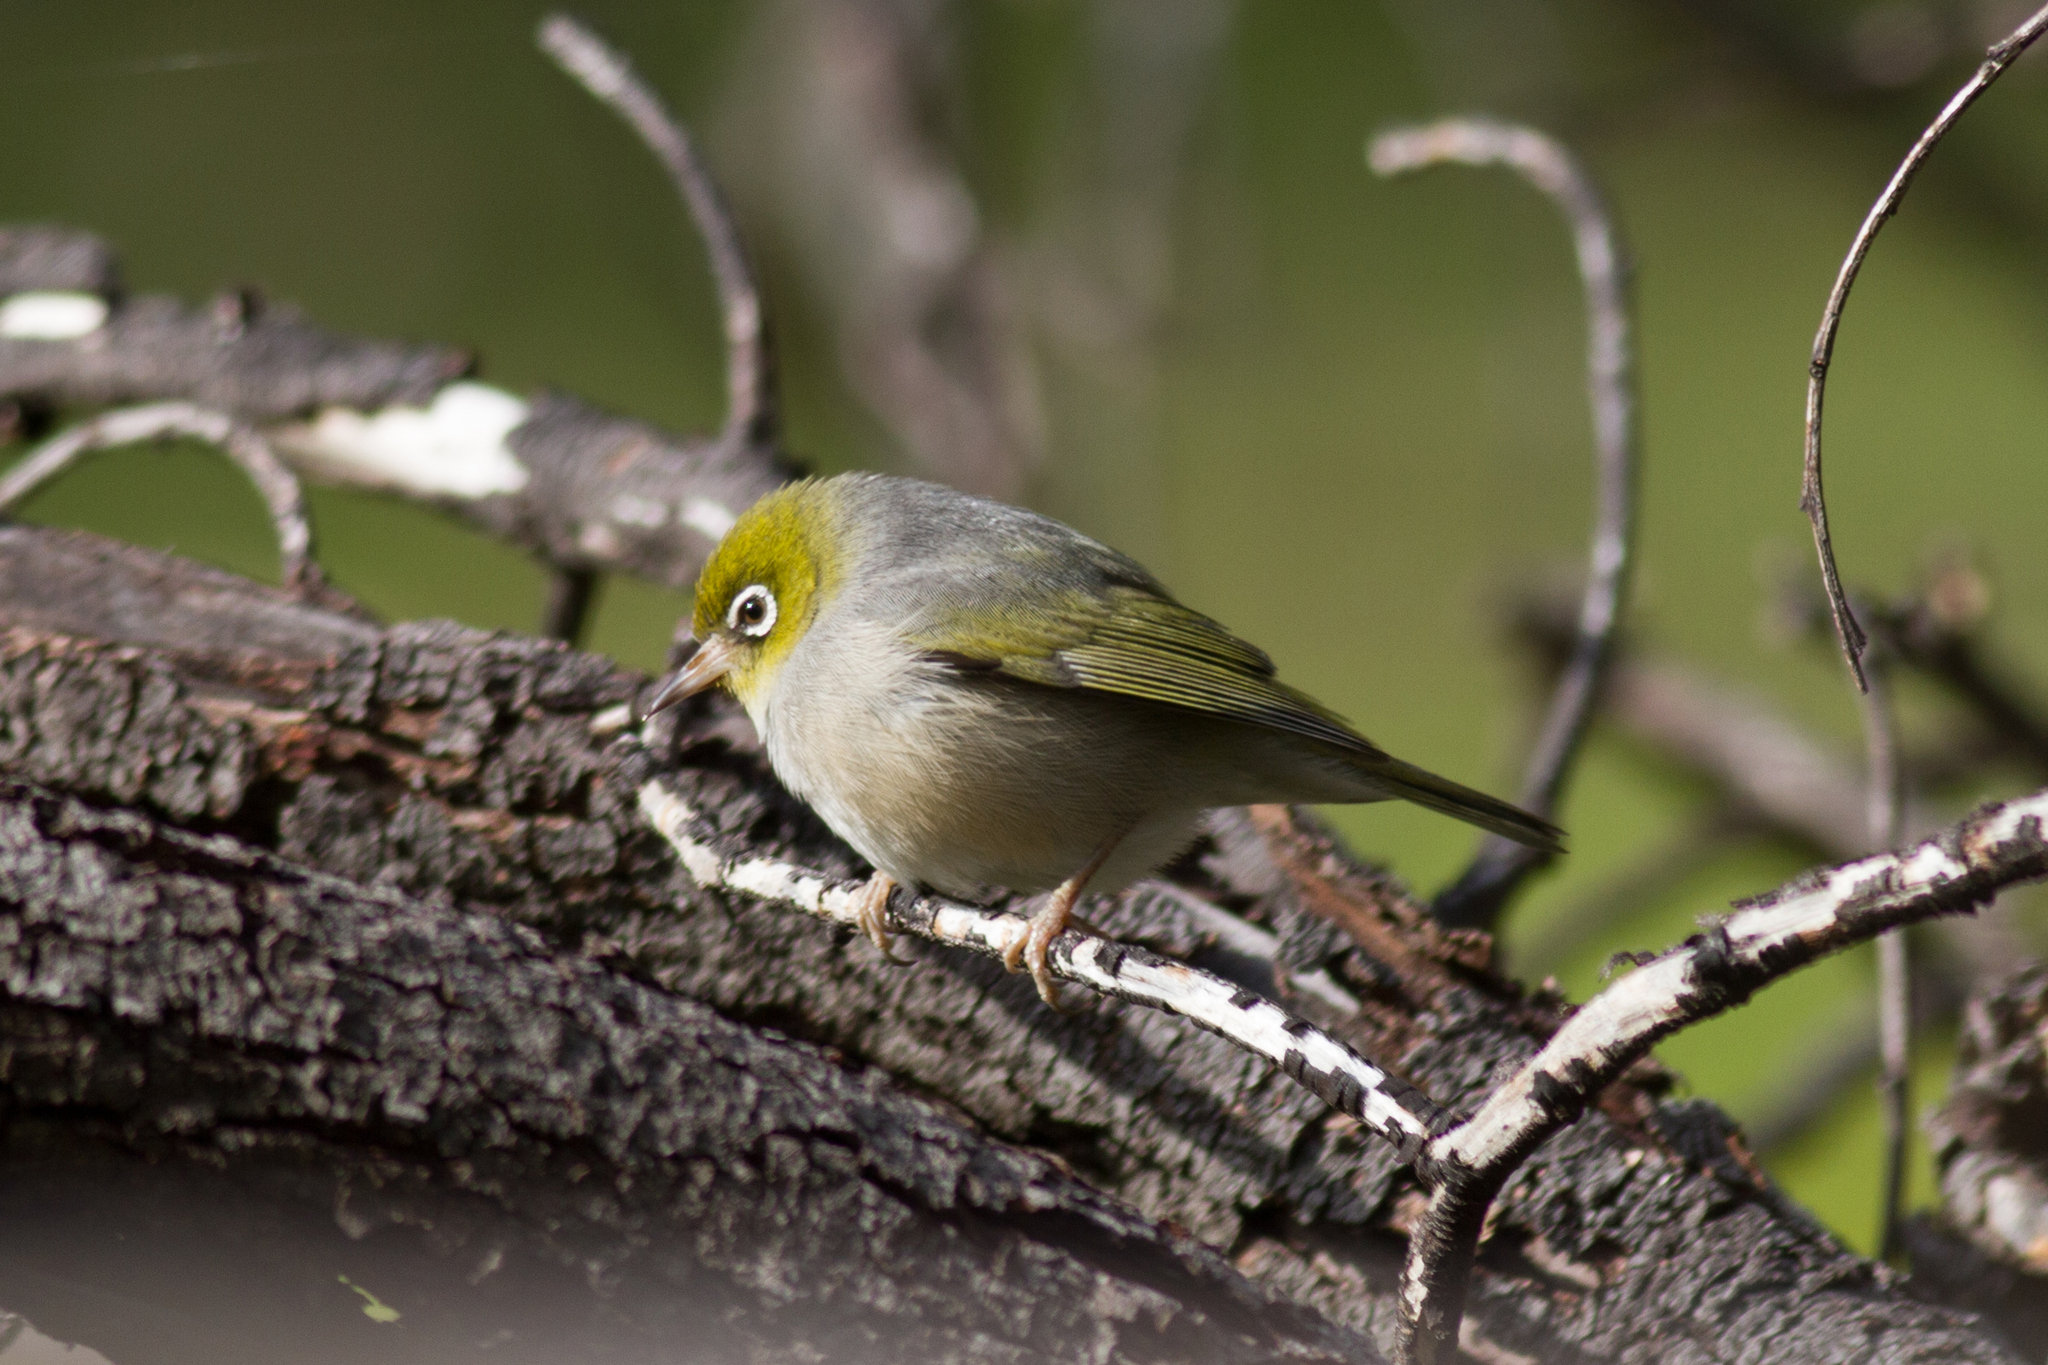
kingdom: Animalia
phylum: Chordata
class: Aves
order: Passeriformes
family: Zosteropidae
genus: Zosterops
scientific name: Zosterops lateralis
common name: Silvereye
